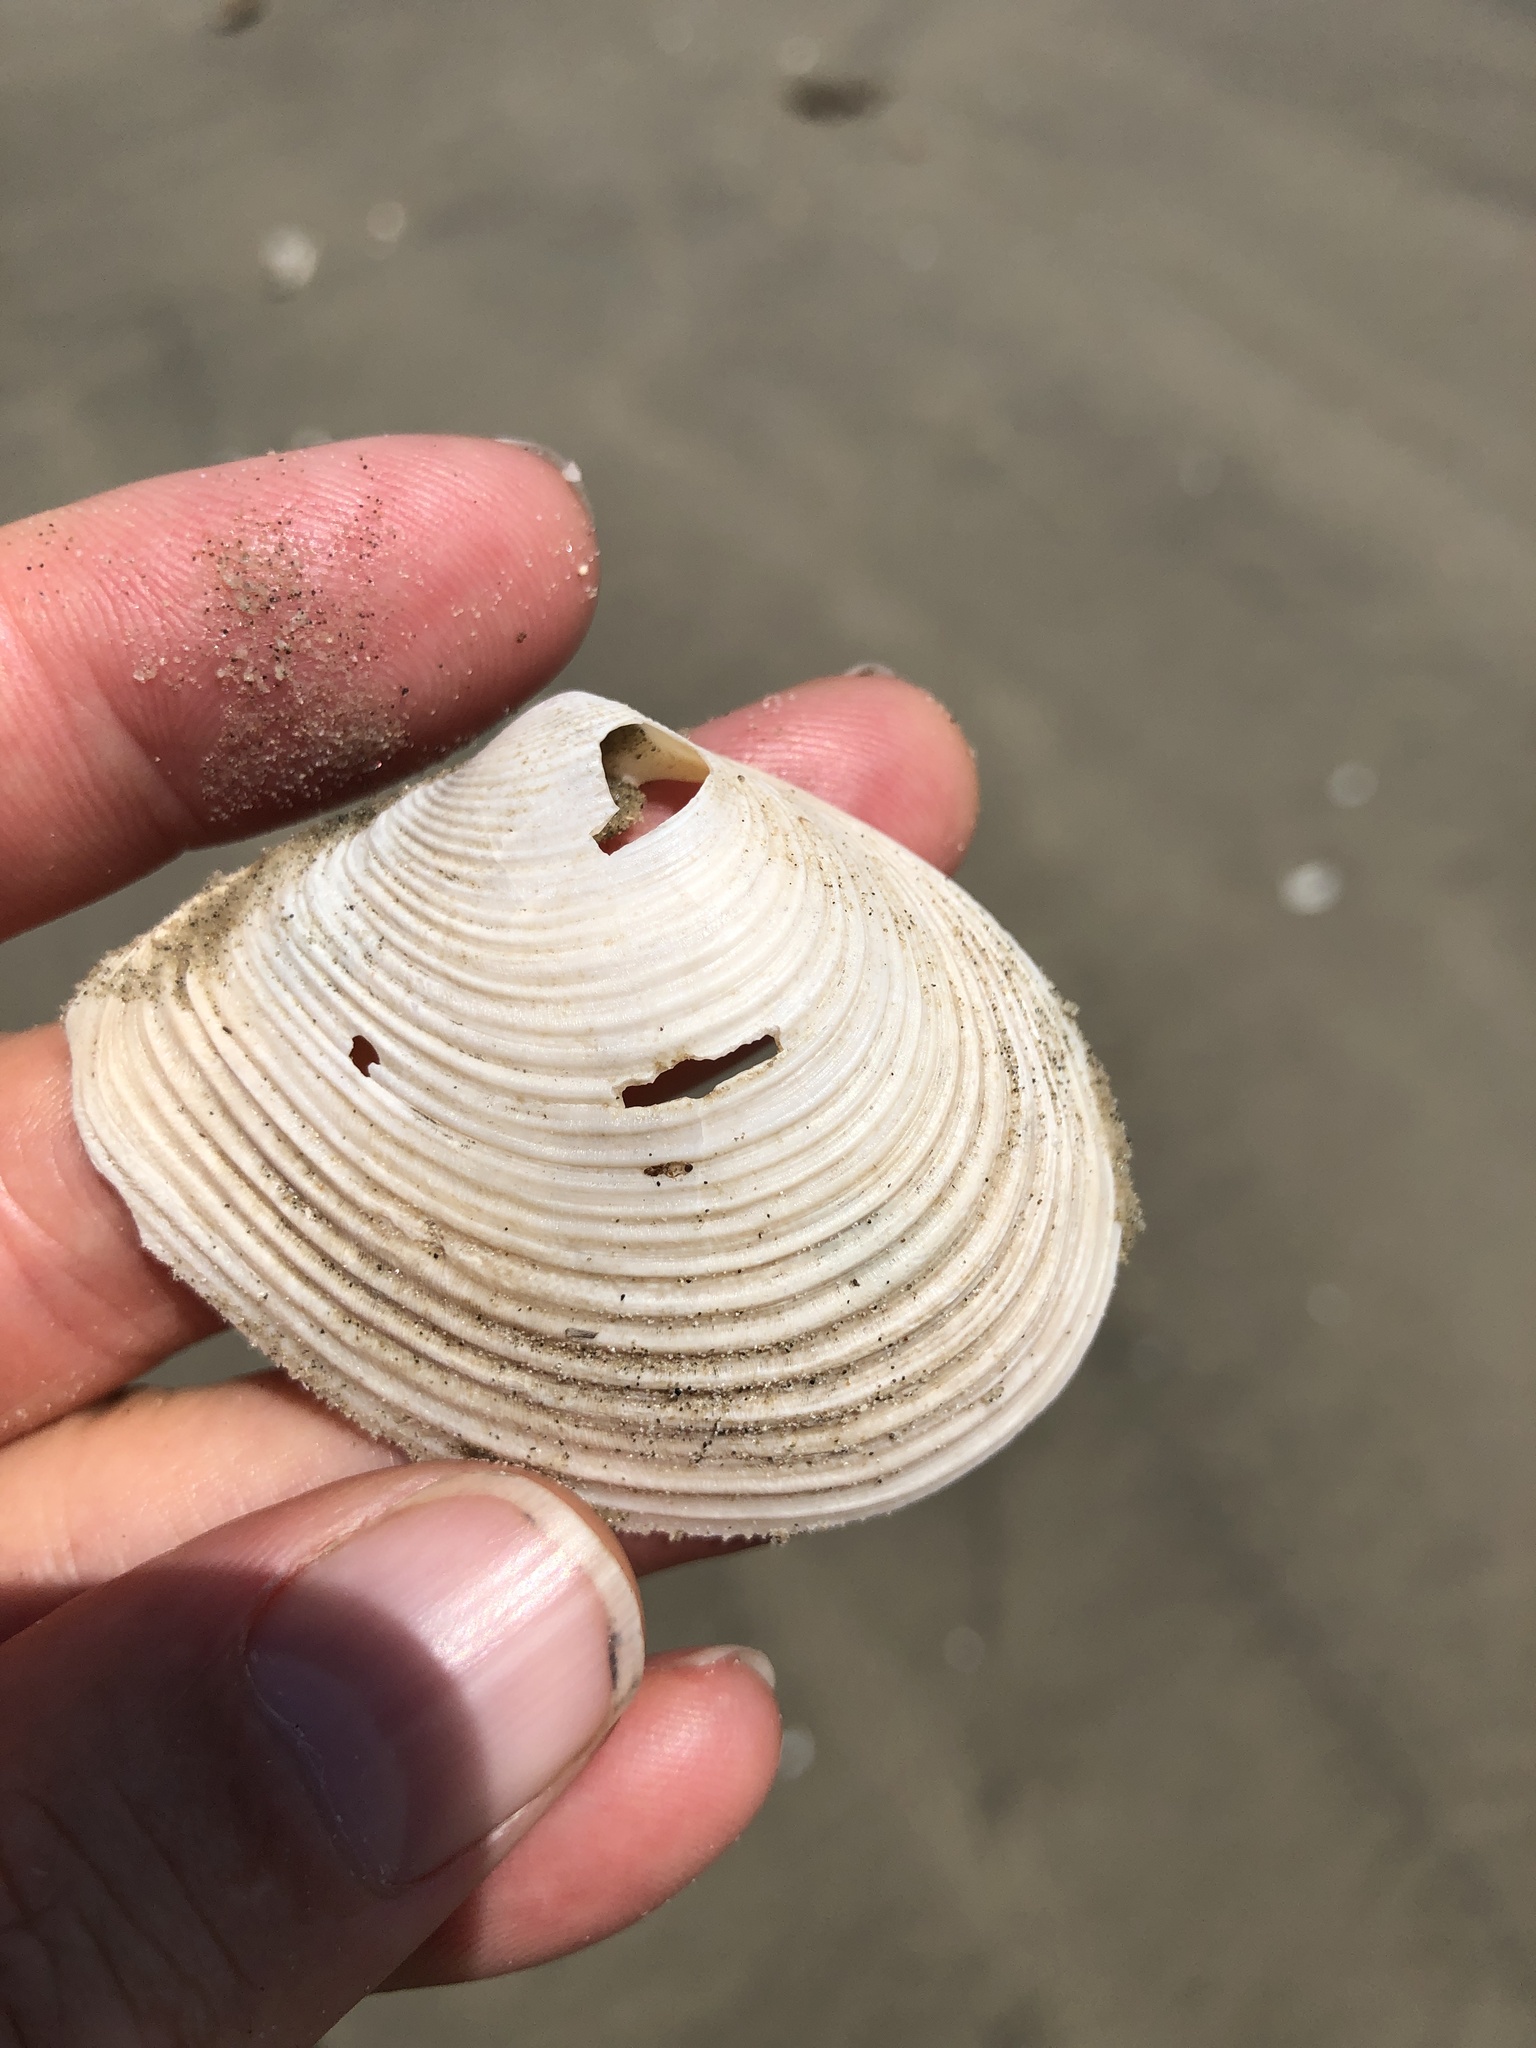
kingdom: Animalia
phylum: Mollusca
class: Bivalvia
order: Venerida
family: Anatinellidae
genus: Raeta
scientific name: Raeta plicatella
